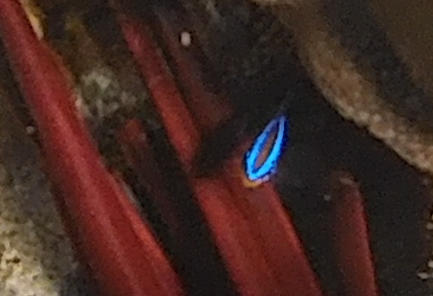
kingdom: Animalia
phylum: Chordata
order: Perciformes
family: Pomacentridae
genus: Chrysiptera
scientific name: Chrysiptera unimaculata
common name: Onespot demoiselle
